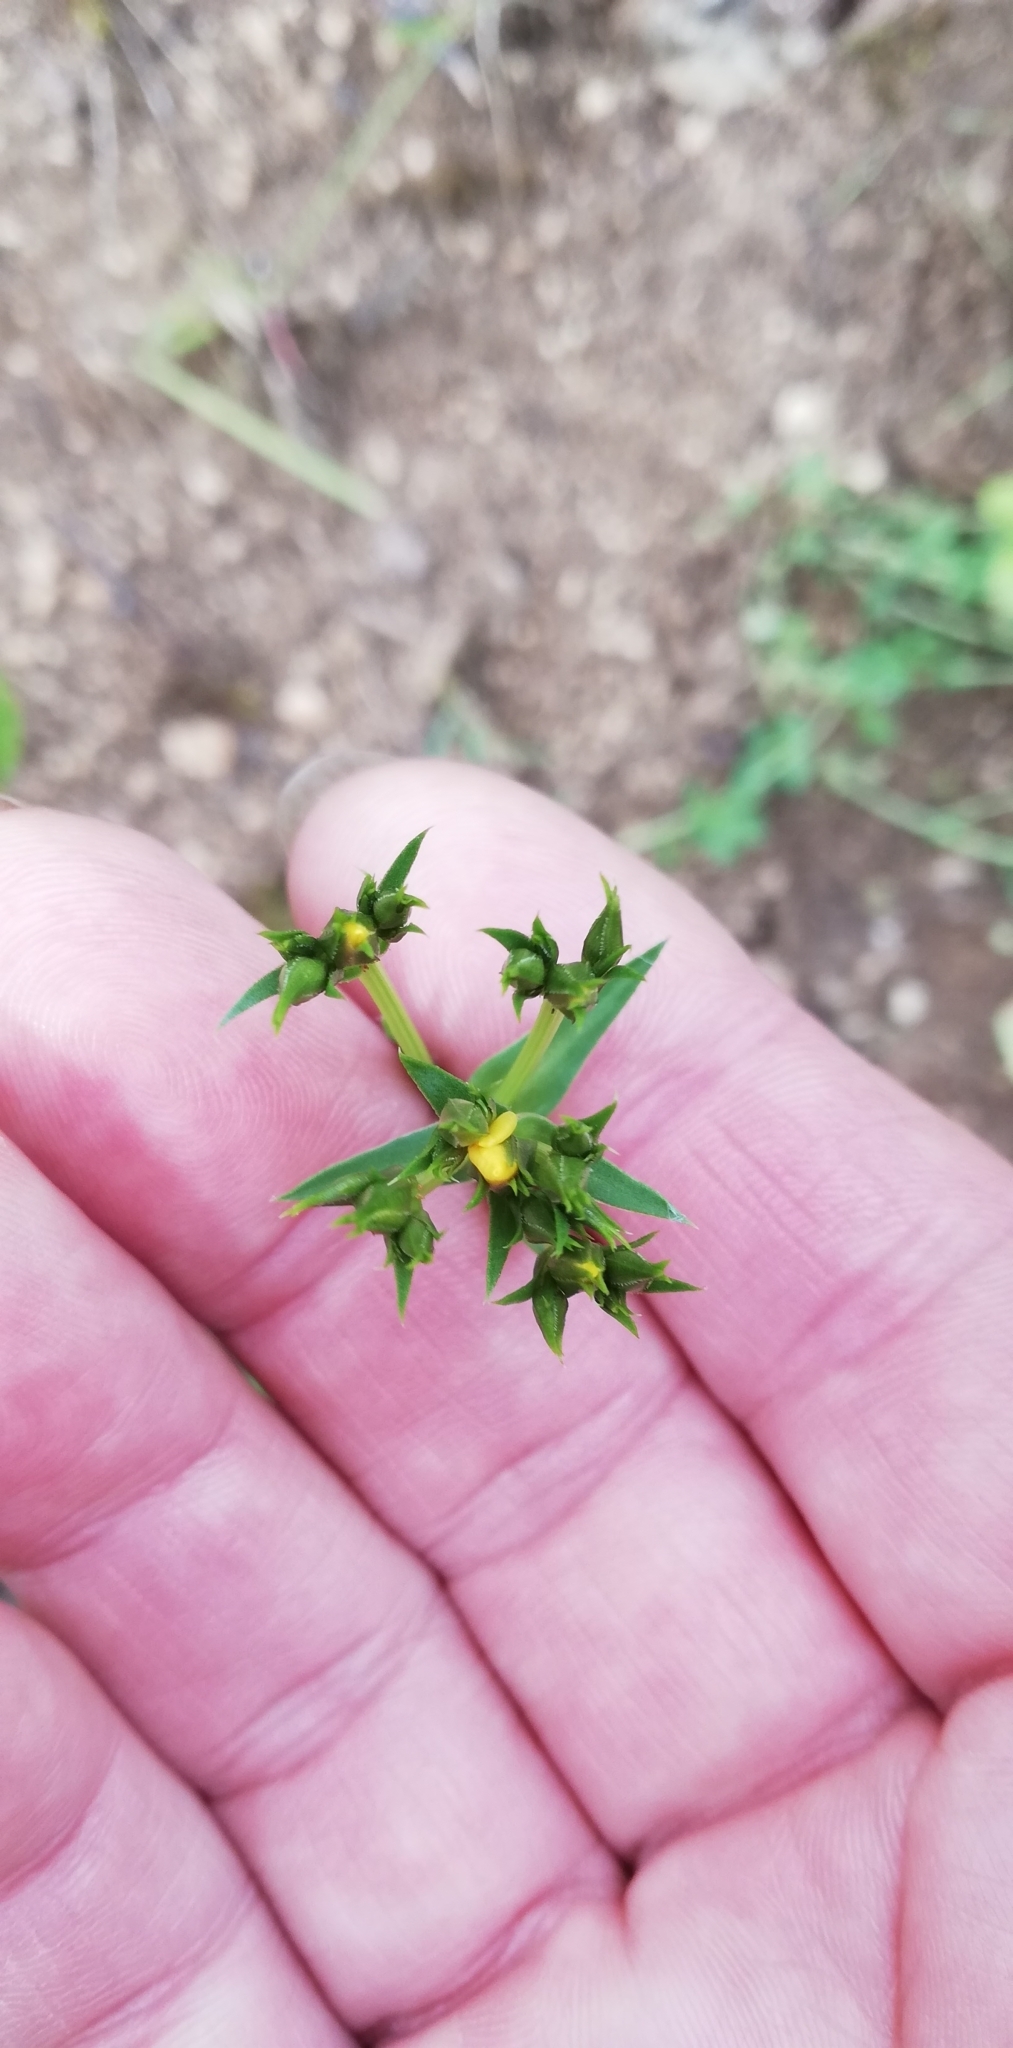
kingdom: Plantae
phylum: Tracheophyta
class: Magnoliopsida
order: Malpighiales
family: Linaceae
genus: Linum
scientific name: Linum flavum
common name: Yellow flax
